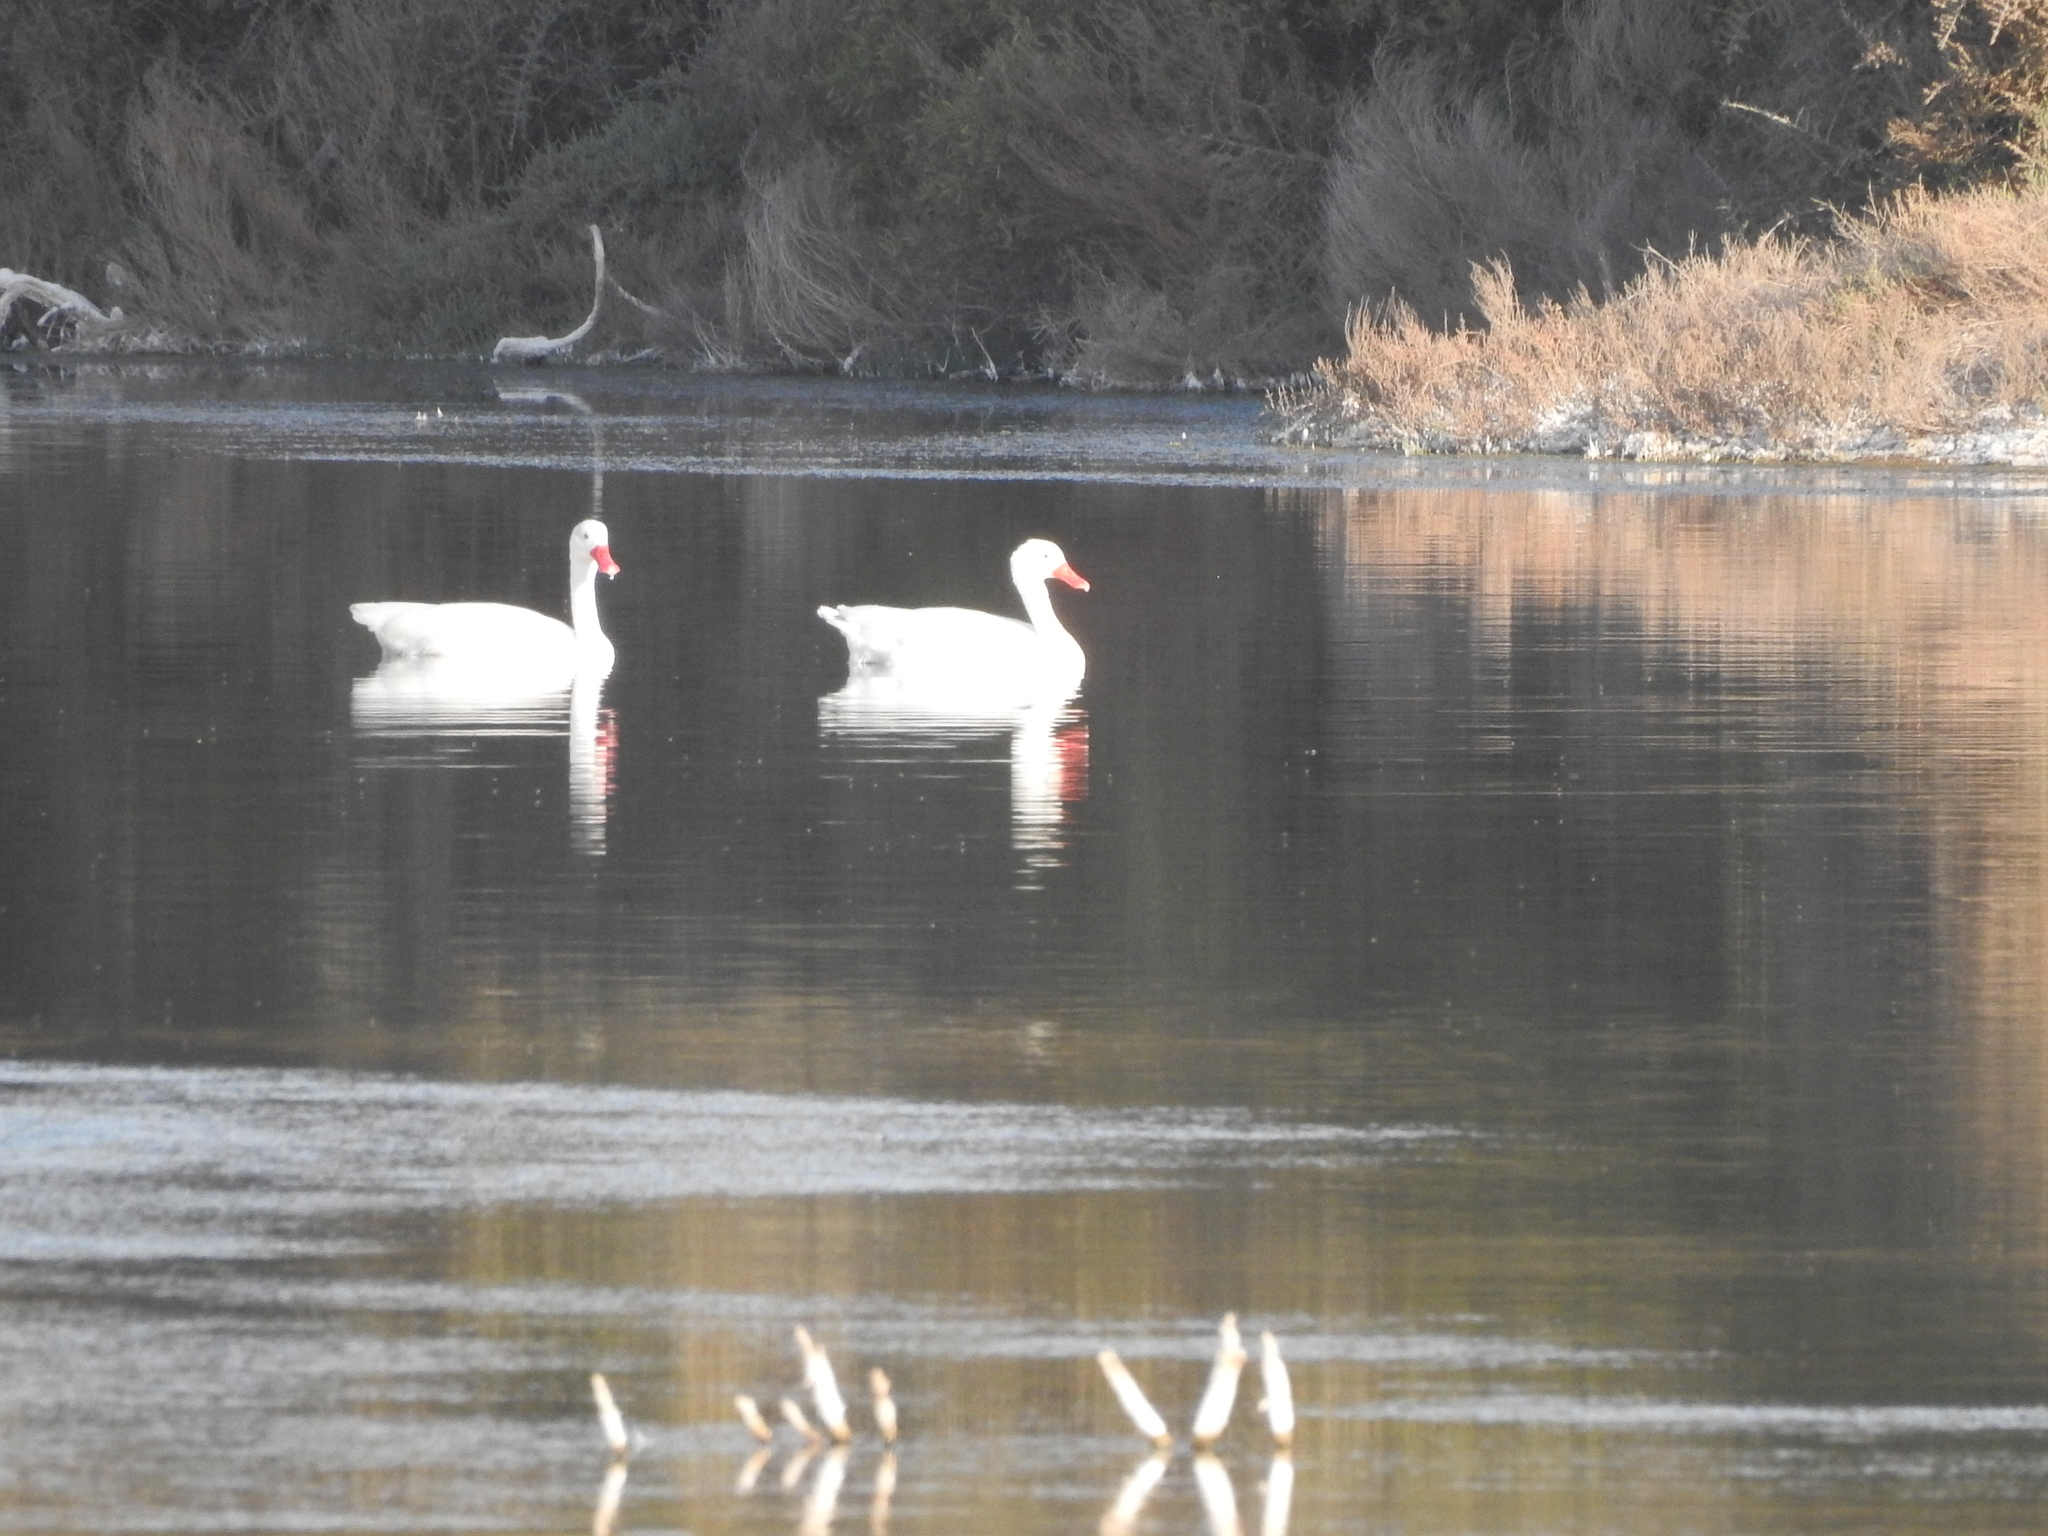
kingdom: Animalia
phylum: Chordata
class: Aves
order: Anseriformes
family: Anatidae
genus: Coscoroba
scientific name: Coscoroba coscoroba
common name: Coscoroba swan
